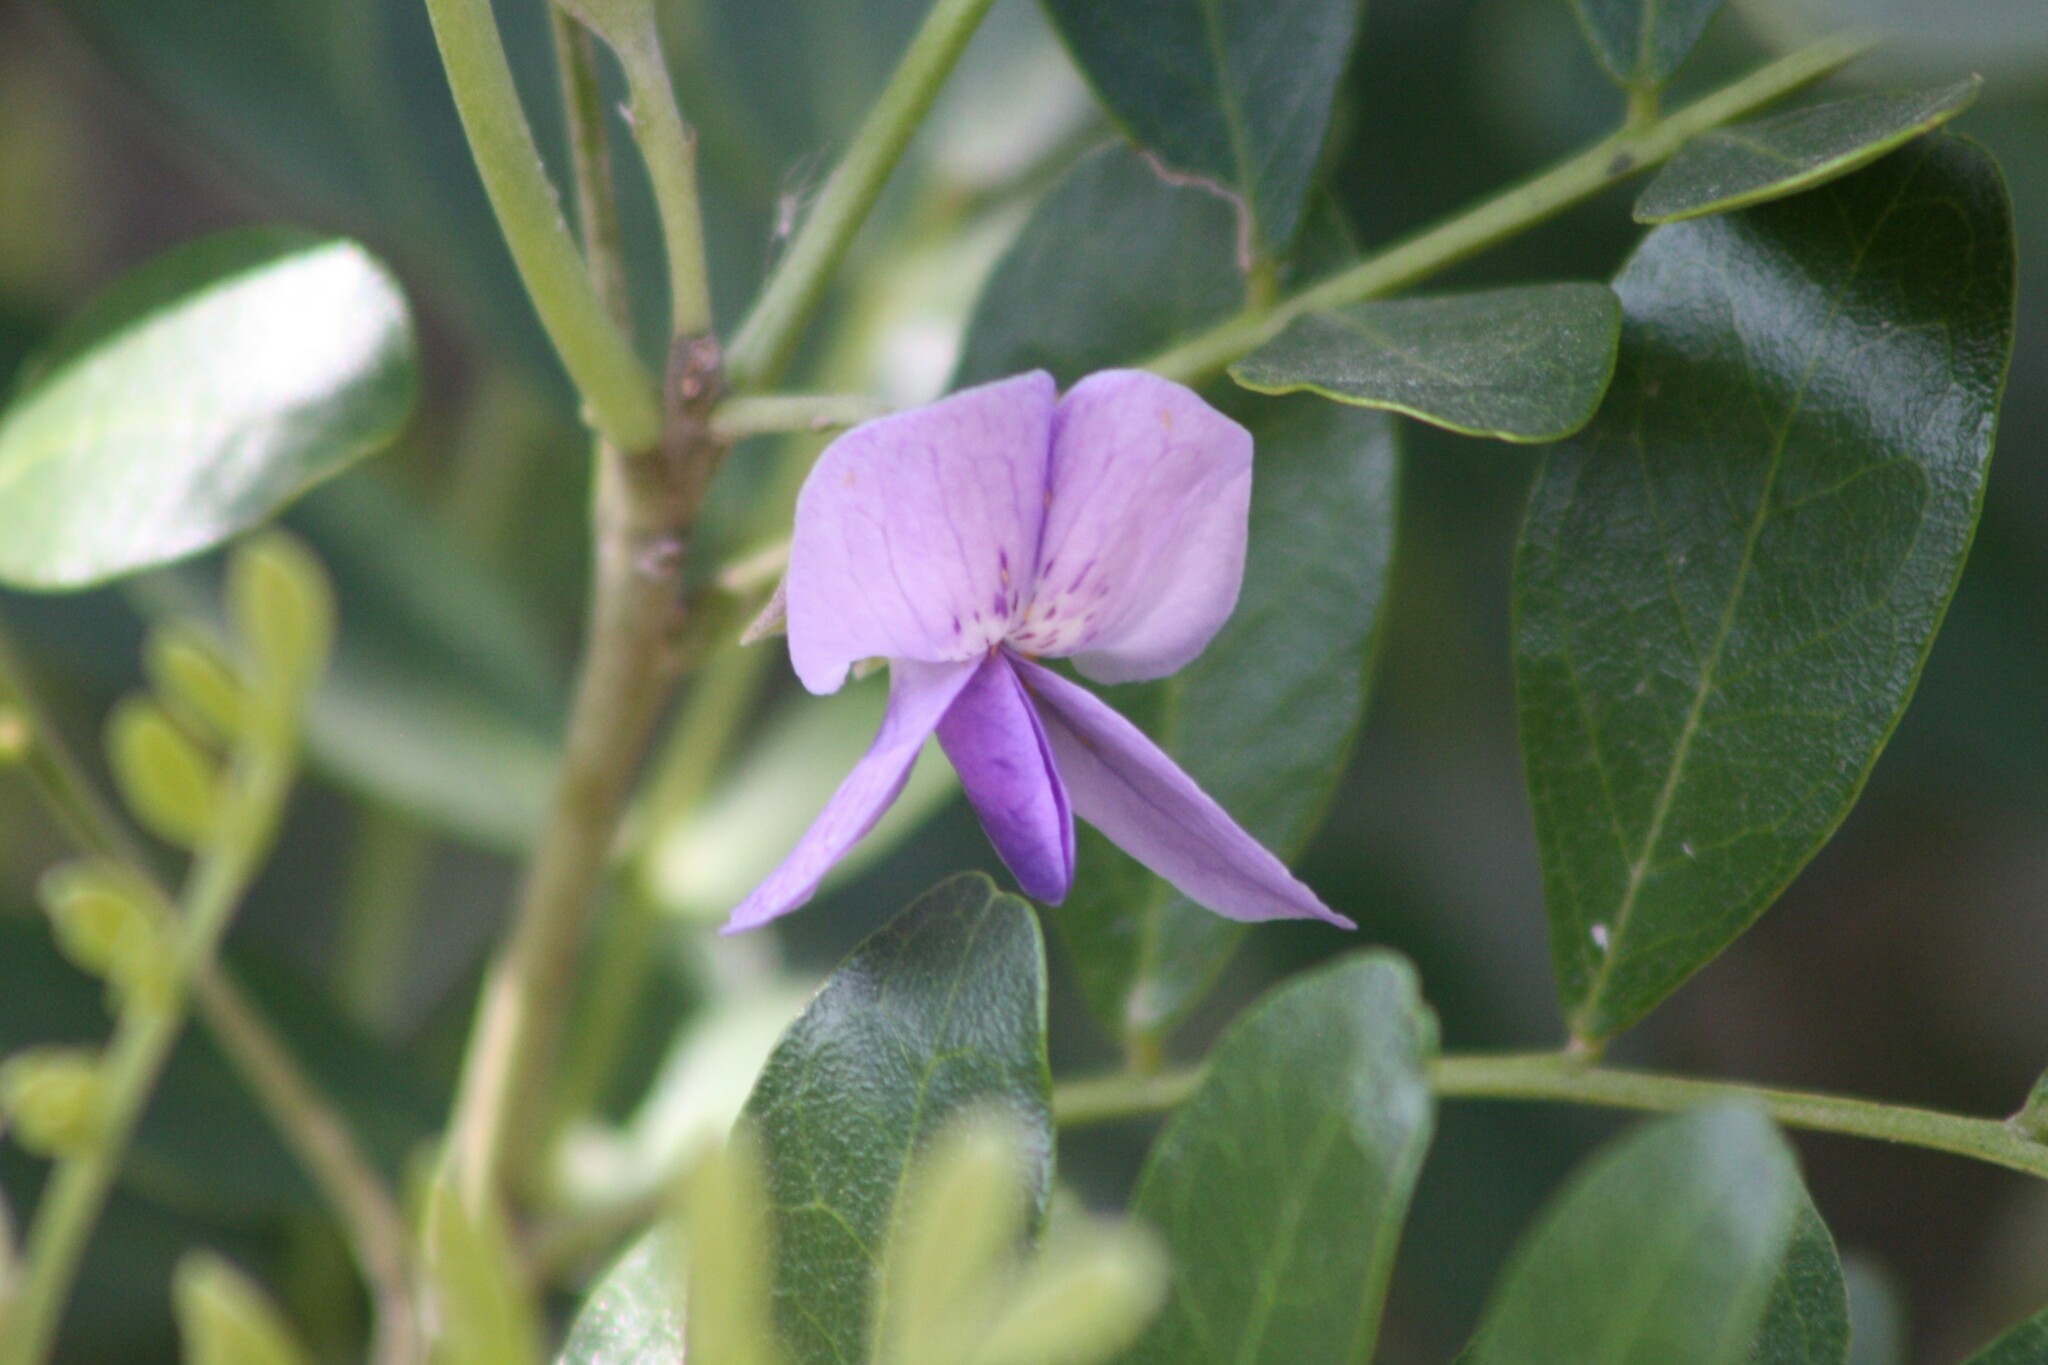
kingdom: Plantae
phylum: Tracheophyta
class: Magnoliopsida
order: Fabales
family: Fabaceae
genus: Dermatophyllum
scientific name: Dermatophyllum secundiflorum
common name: Texas-mountain-laurel
